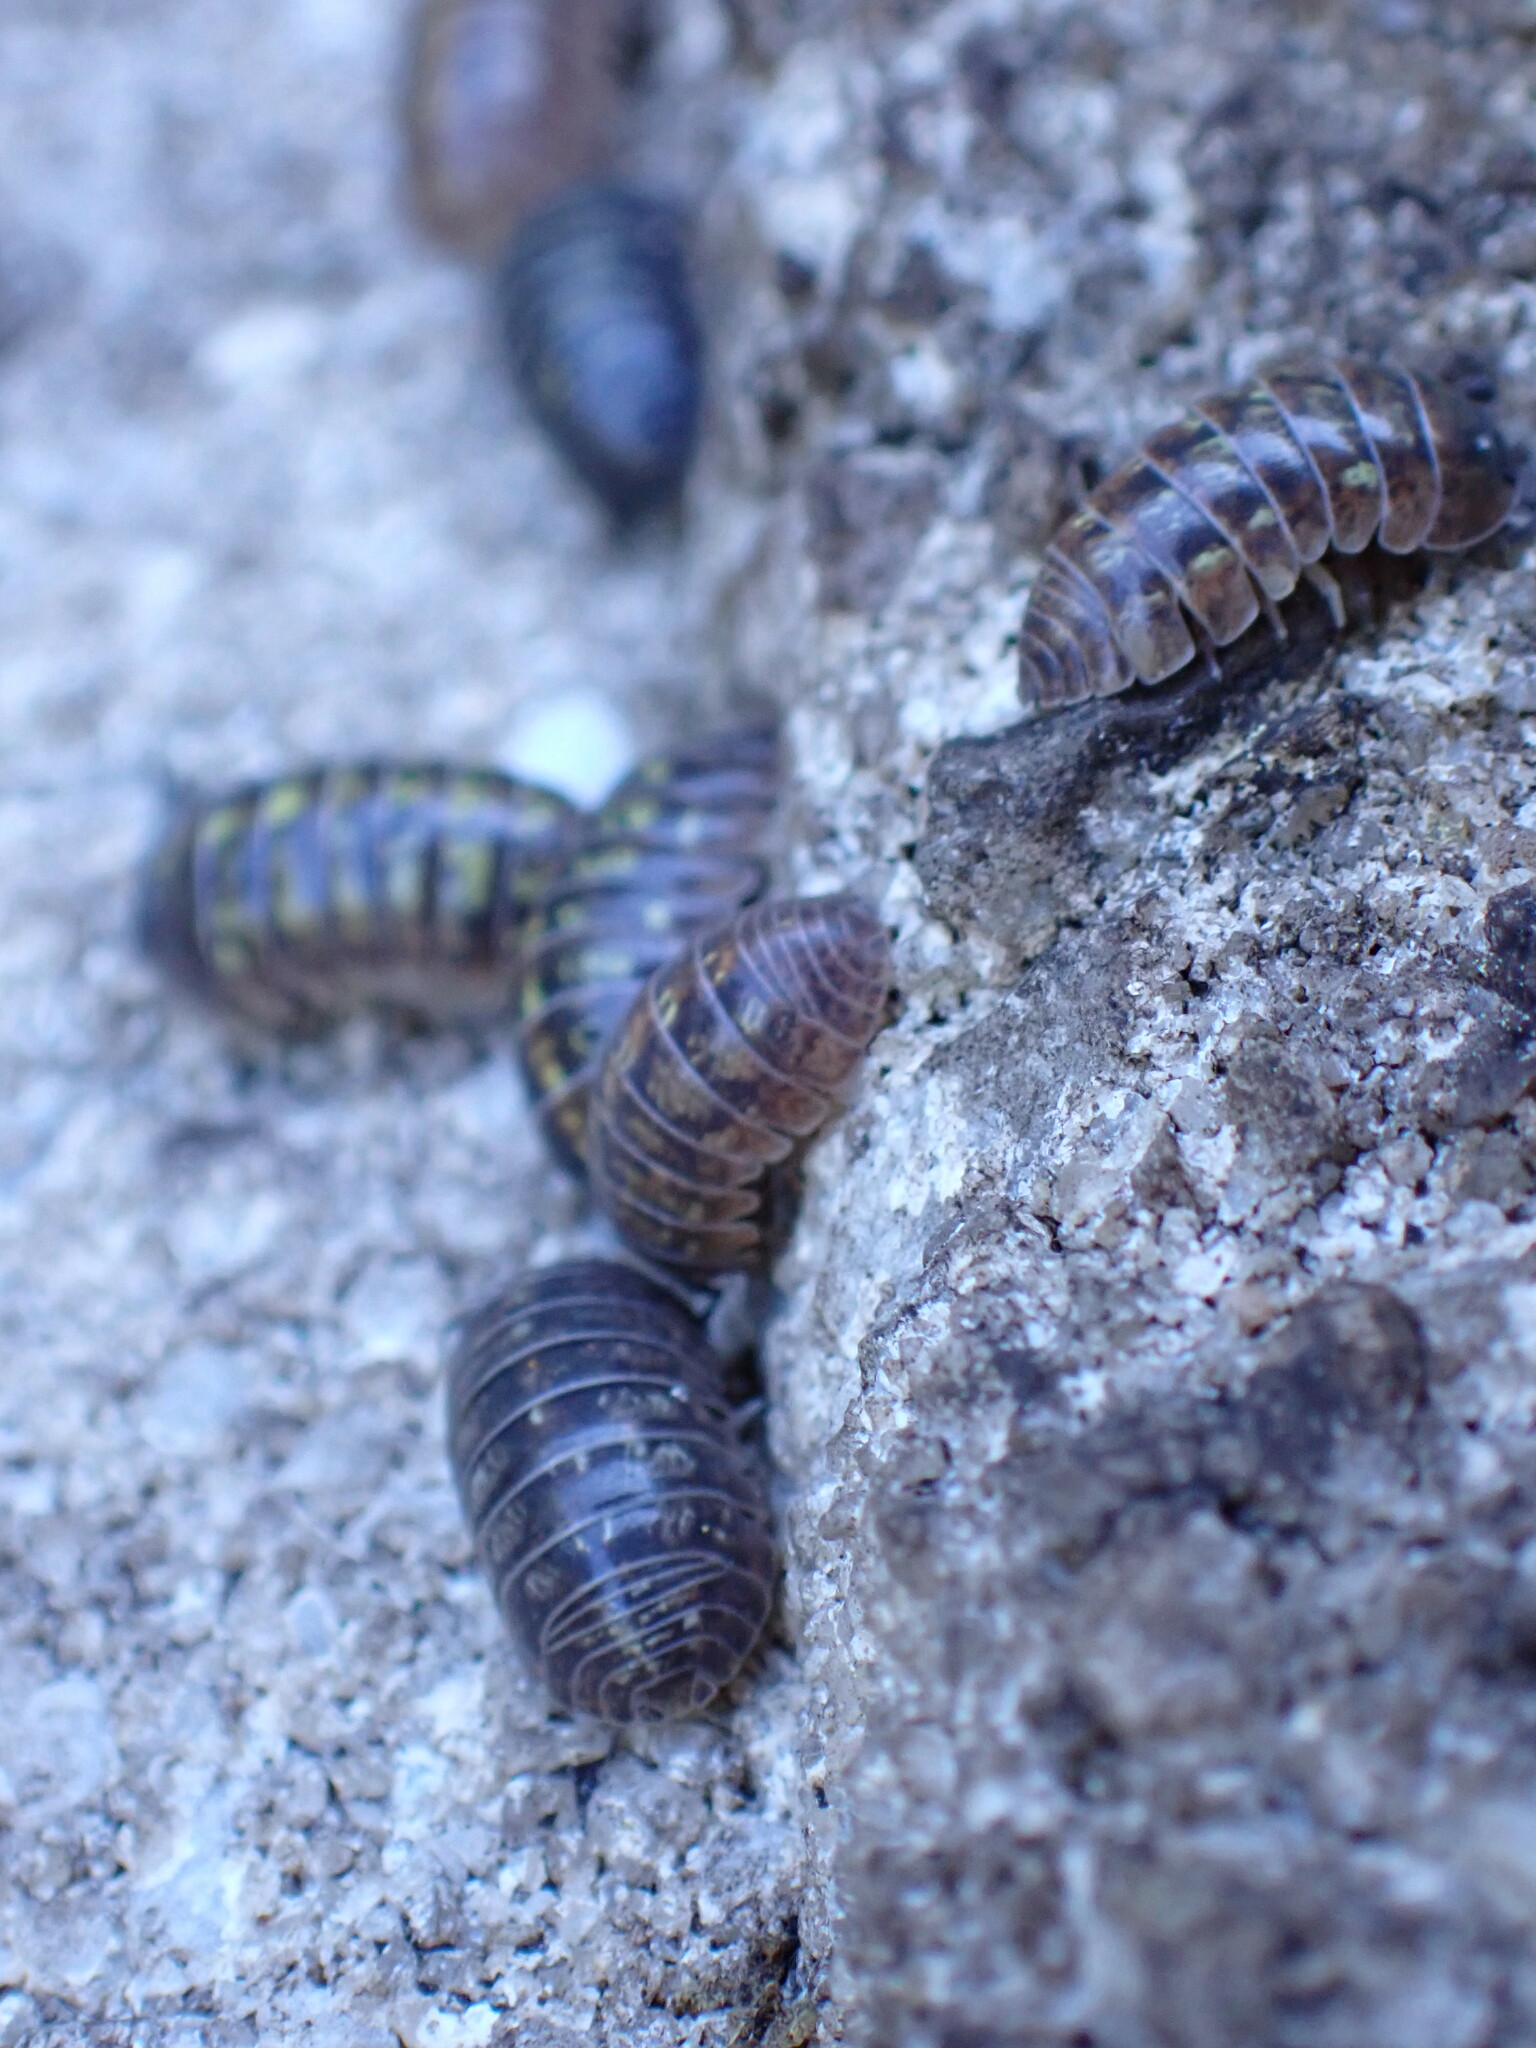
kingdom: Animalia
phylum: Arthropoda
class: Malacostraca
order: Isopoda
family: Armadillidiidae
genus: Armadillidium
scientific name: Armadillidium vulgare
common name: Common pill woodlouse
